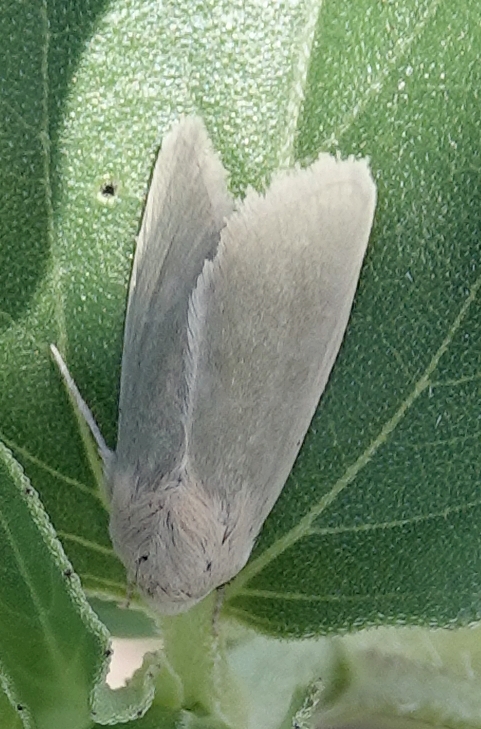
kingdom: Animalia
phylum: Arthropoda
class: Insecta
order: Lepidoptera
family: Noctuidae
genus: Schinia
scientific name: Schinia simplex
